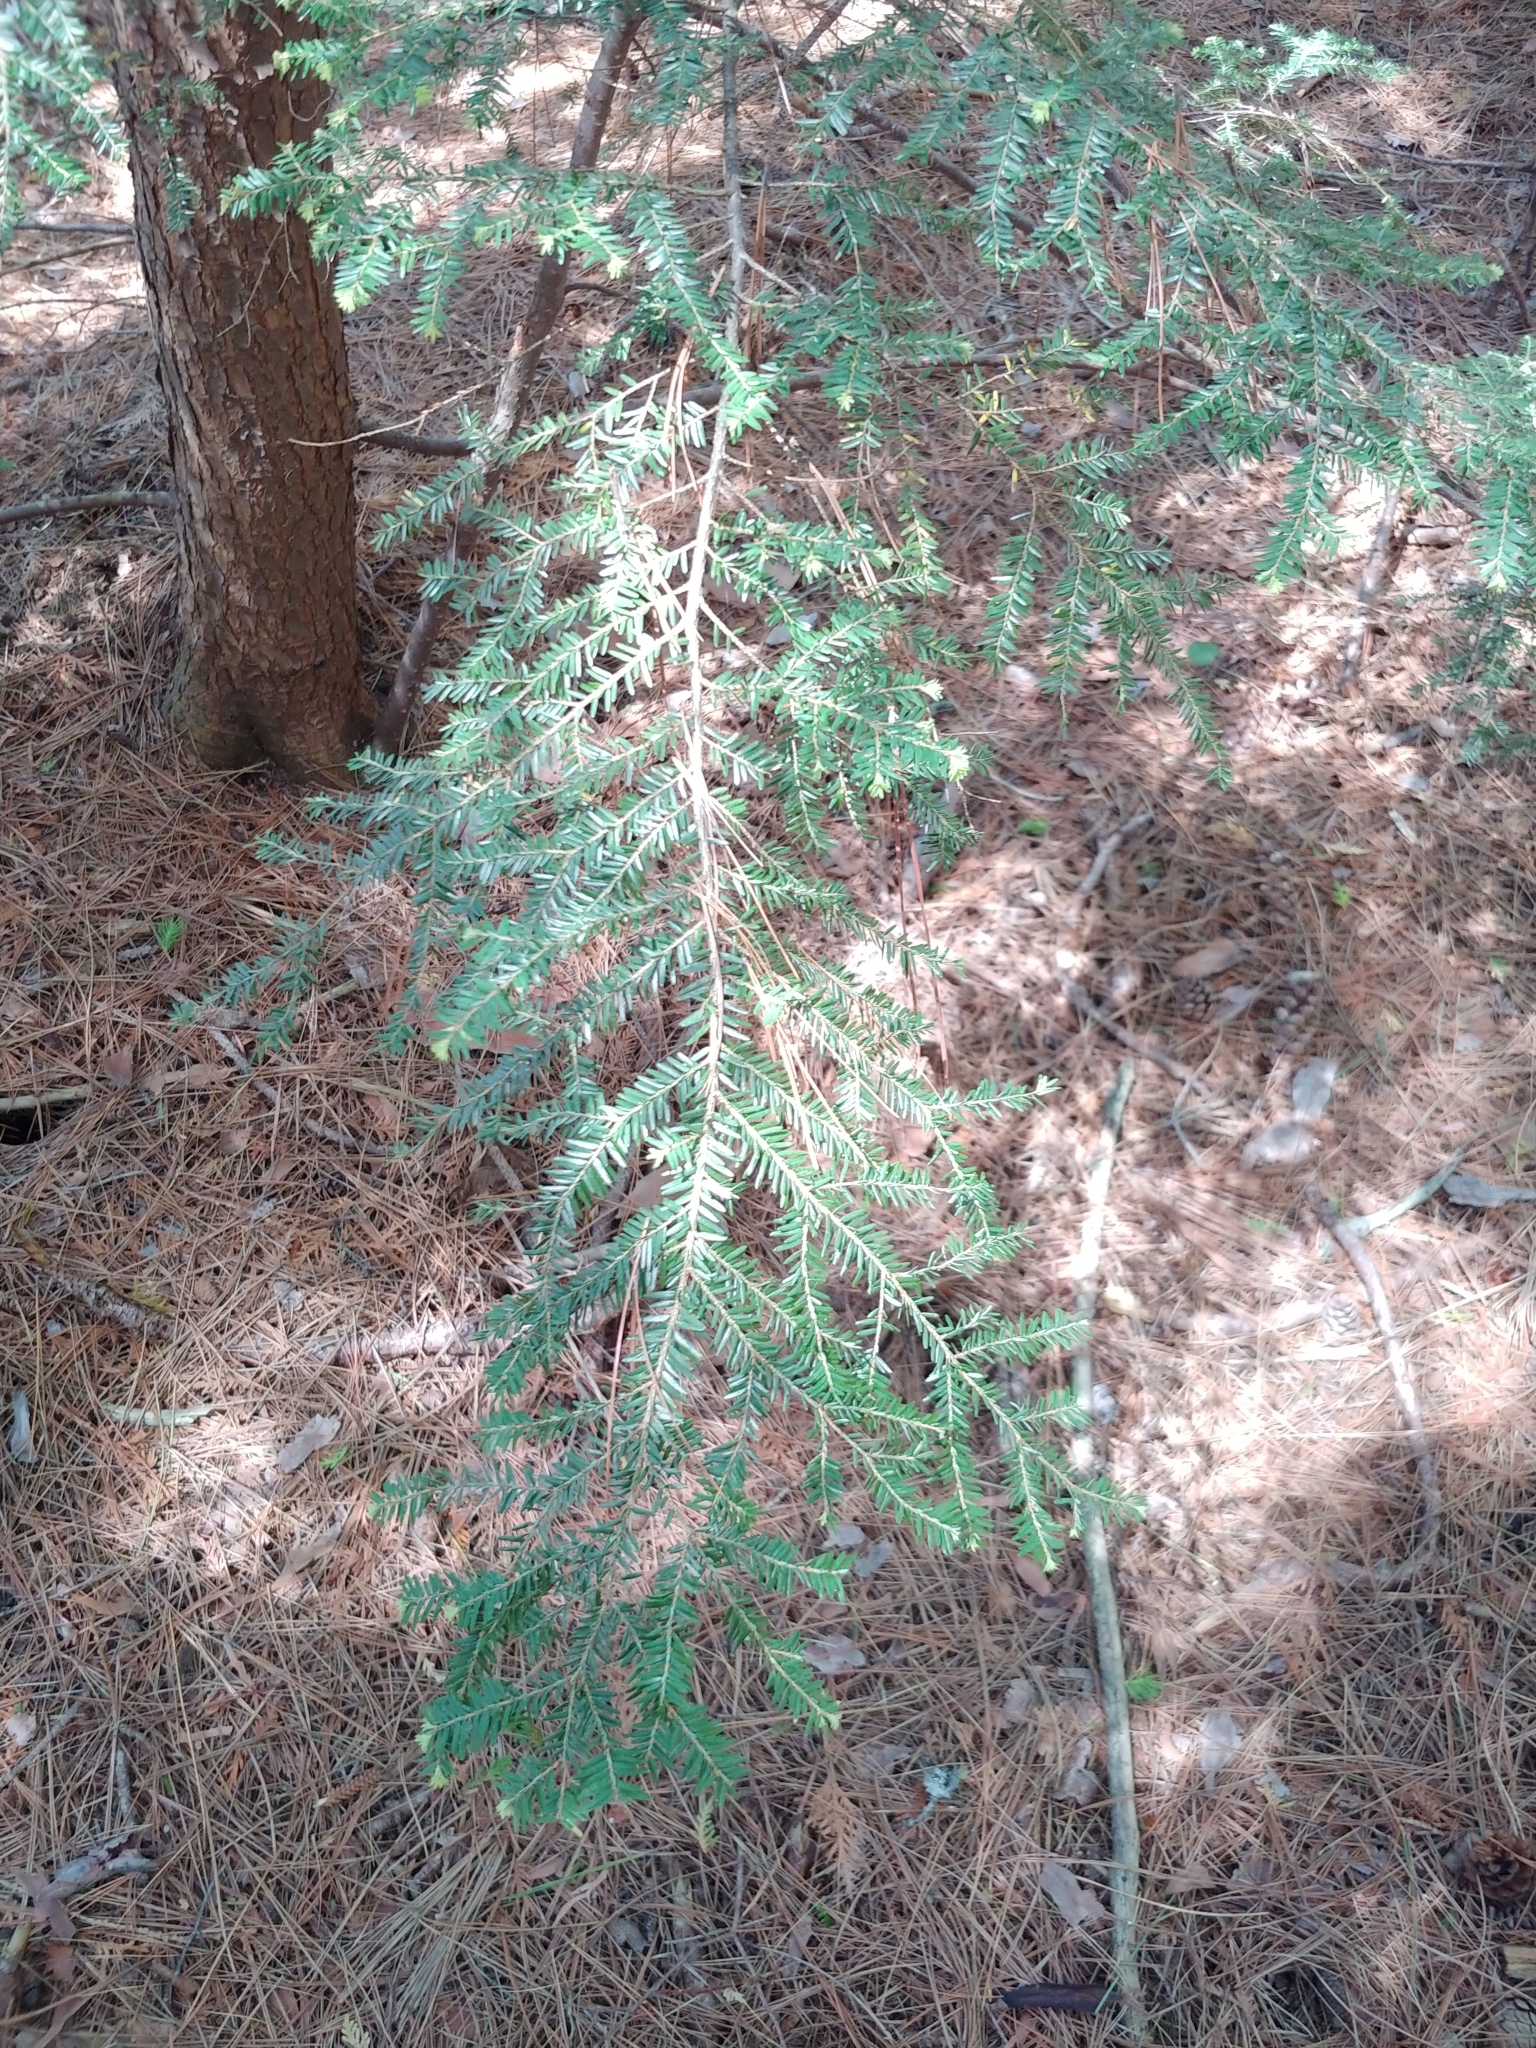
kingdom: Plantae
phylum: Tracheophyta
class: Pinopsida
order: Pinales
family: Pinaceae
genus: Tsuga
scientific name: Tsuga canadensis
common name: Eastern hemlock
